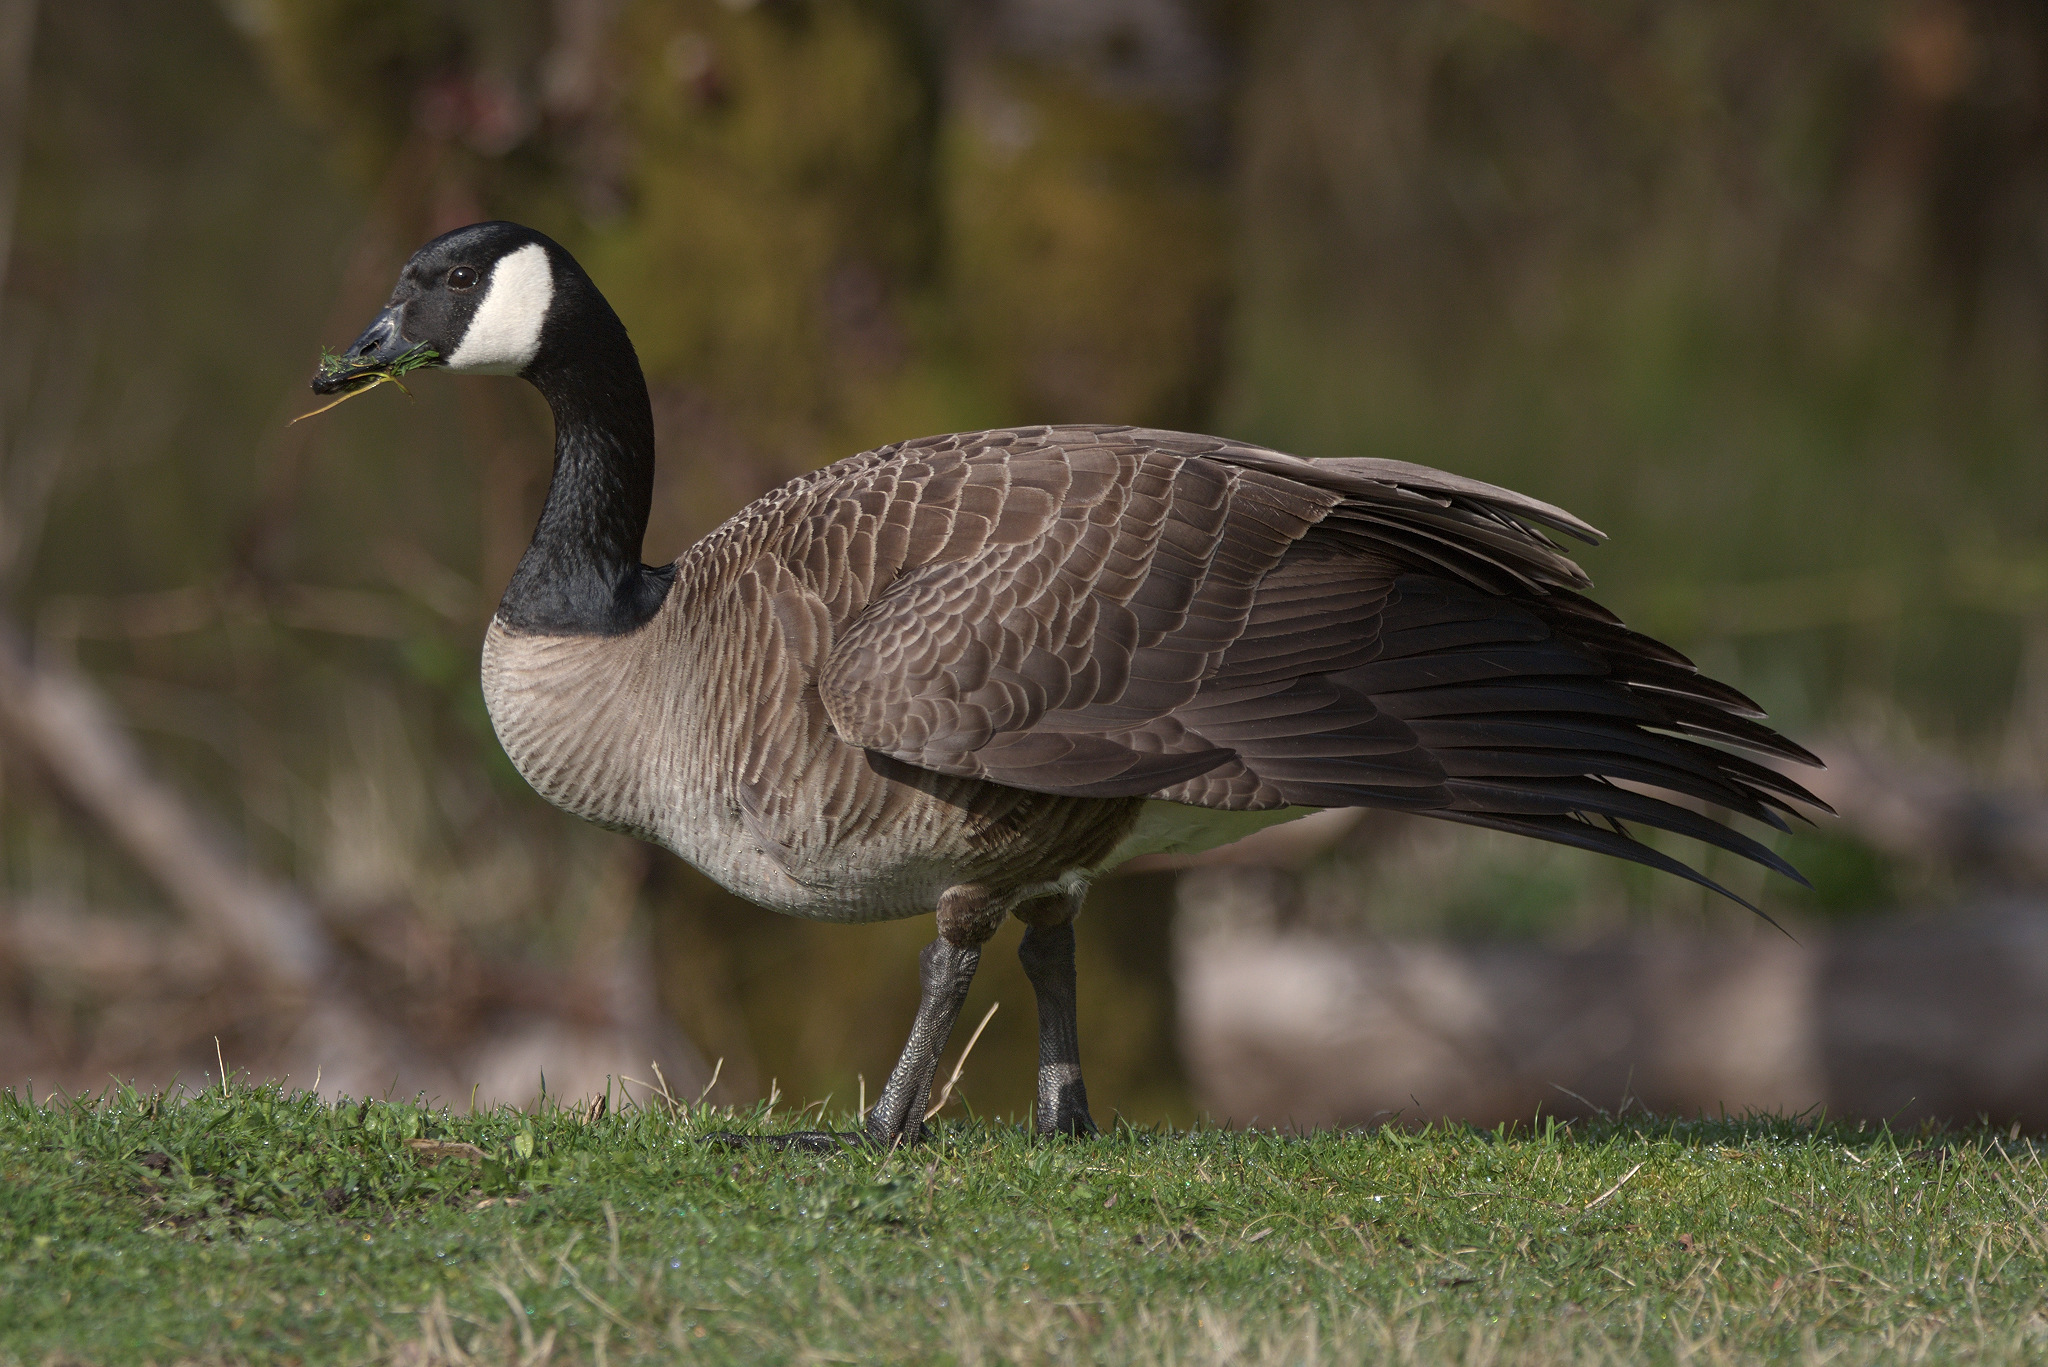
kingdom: Animalia
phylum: Chordata
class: Aves
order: Anseriformes
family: Anatidae
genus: Branta
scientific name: Branta canadensis
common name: Canada goose
